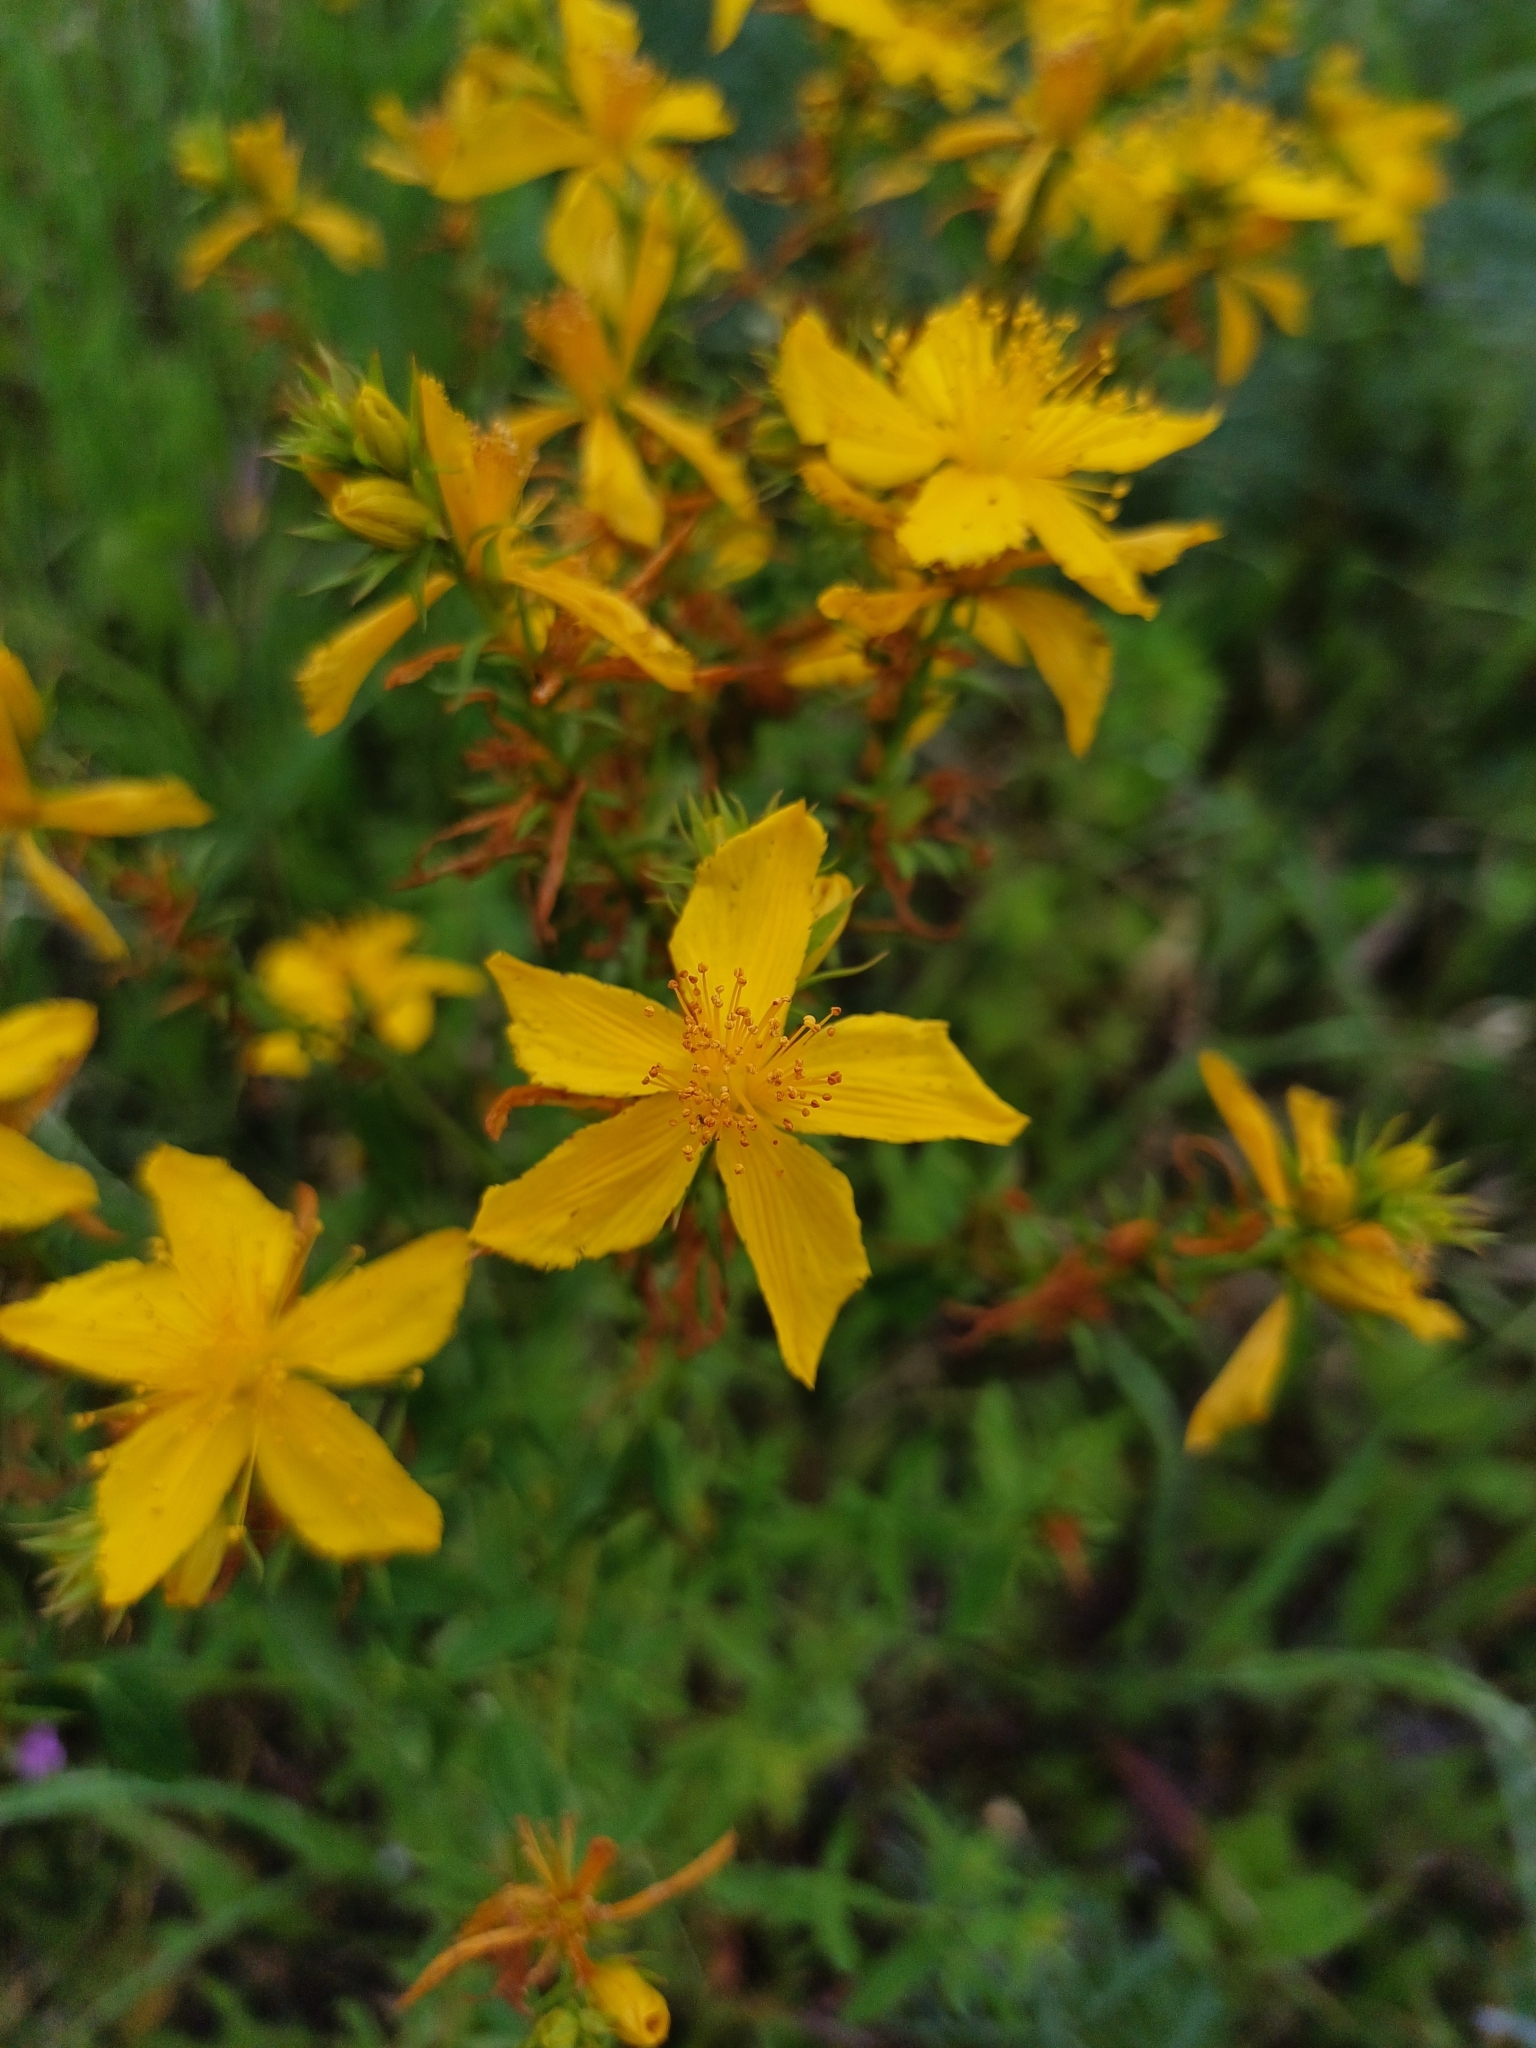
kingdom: Plantae
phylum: Tracheophyta
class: Magnoliopsida
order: Malpighiales
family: Hypericaceae
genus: Hypericum
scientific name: Hypericum perforatum
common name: Common st. johnswort
